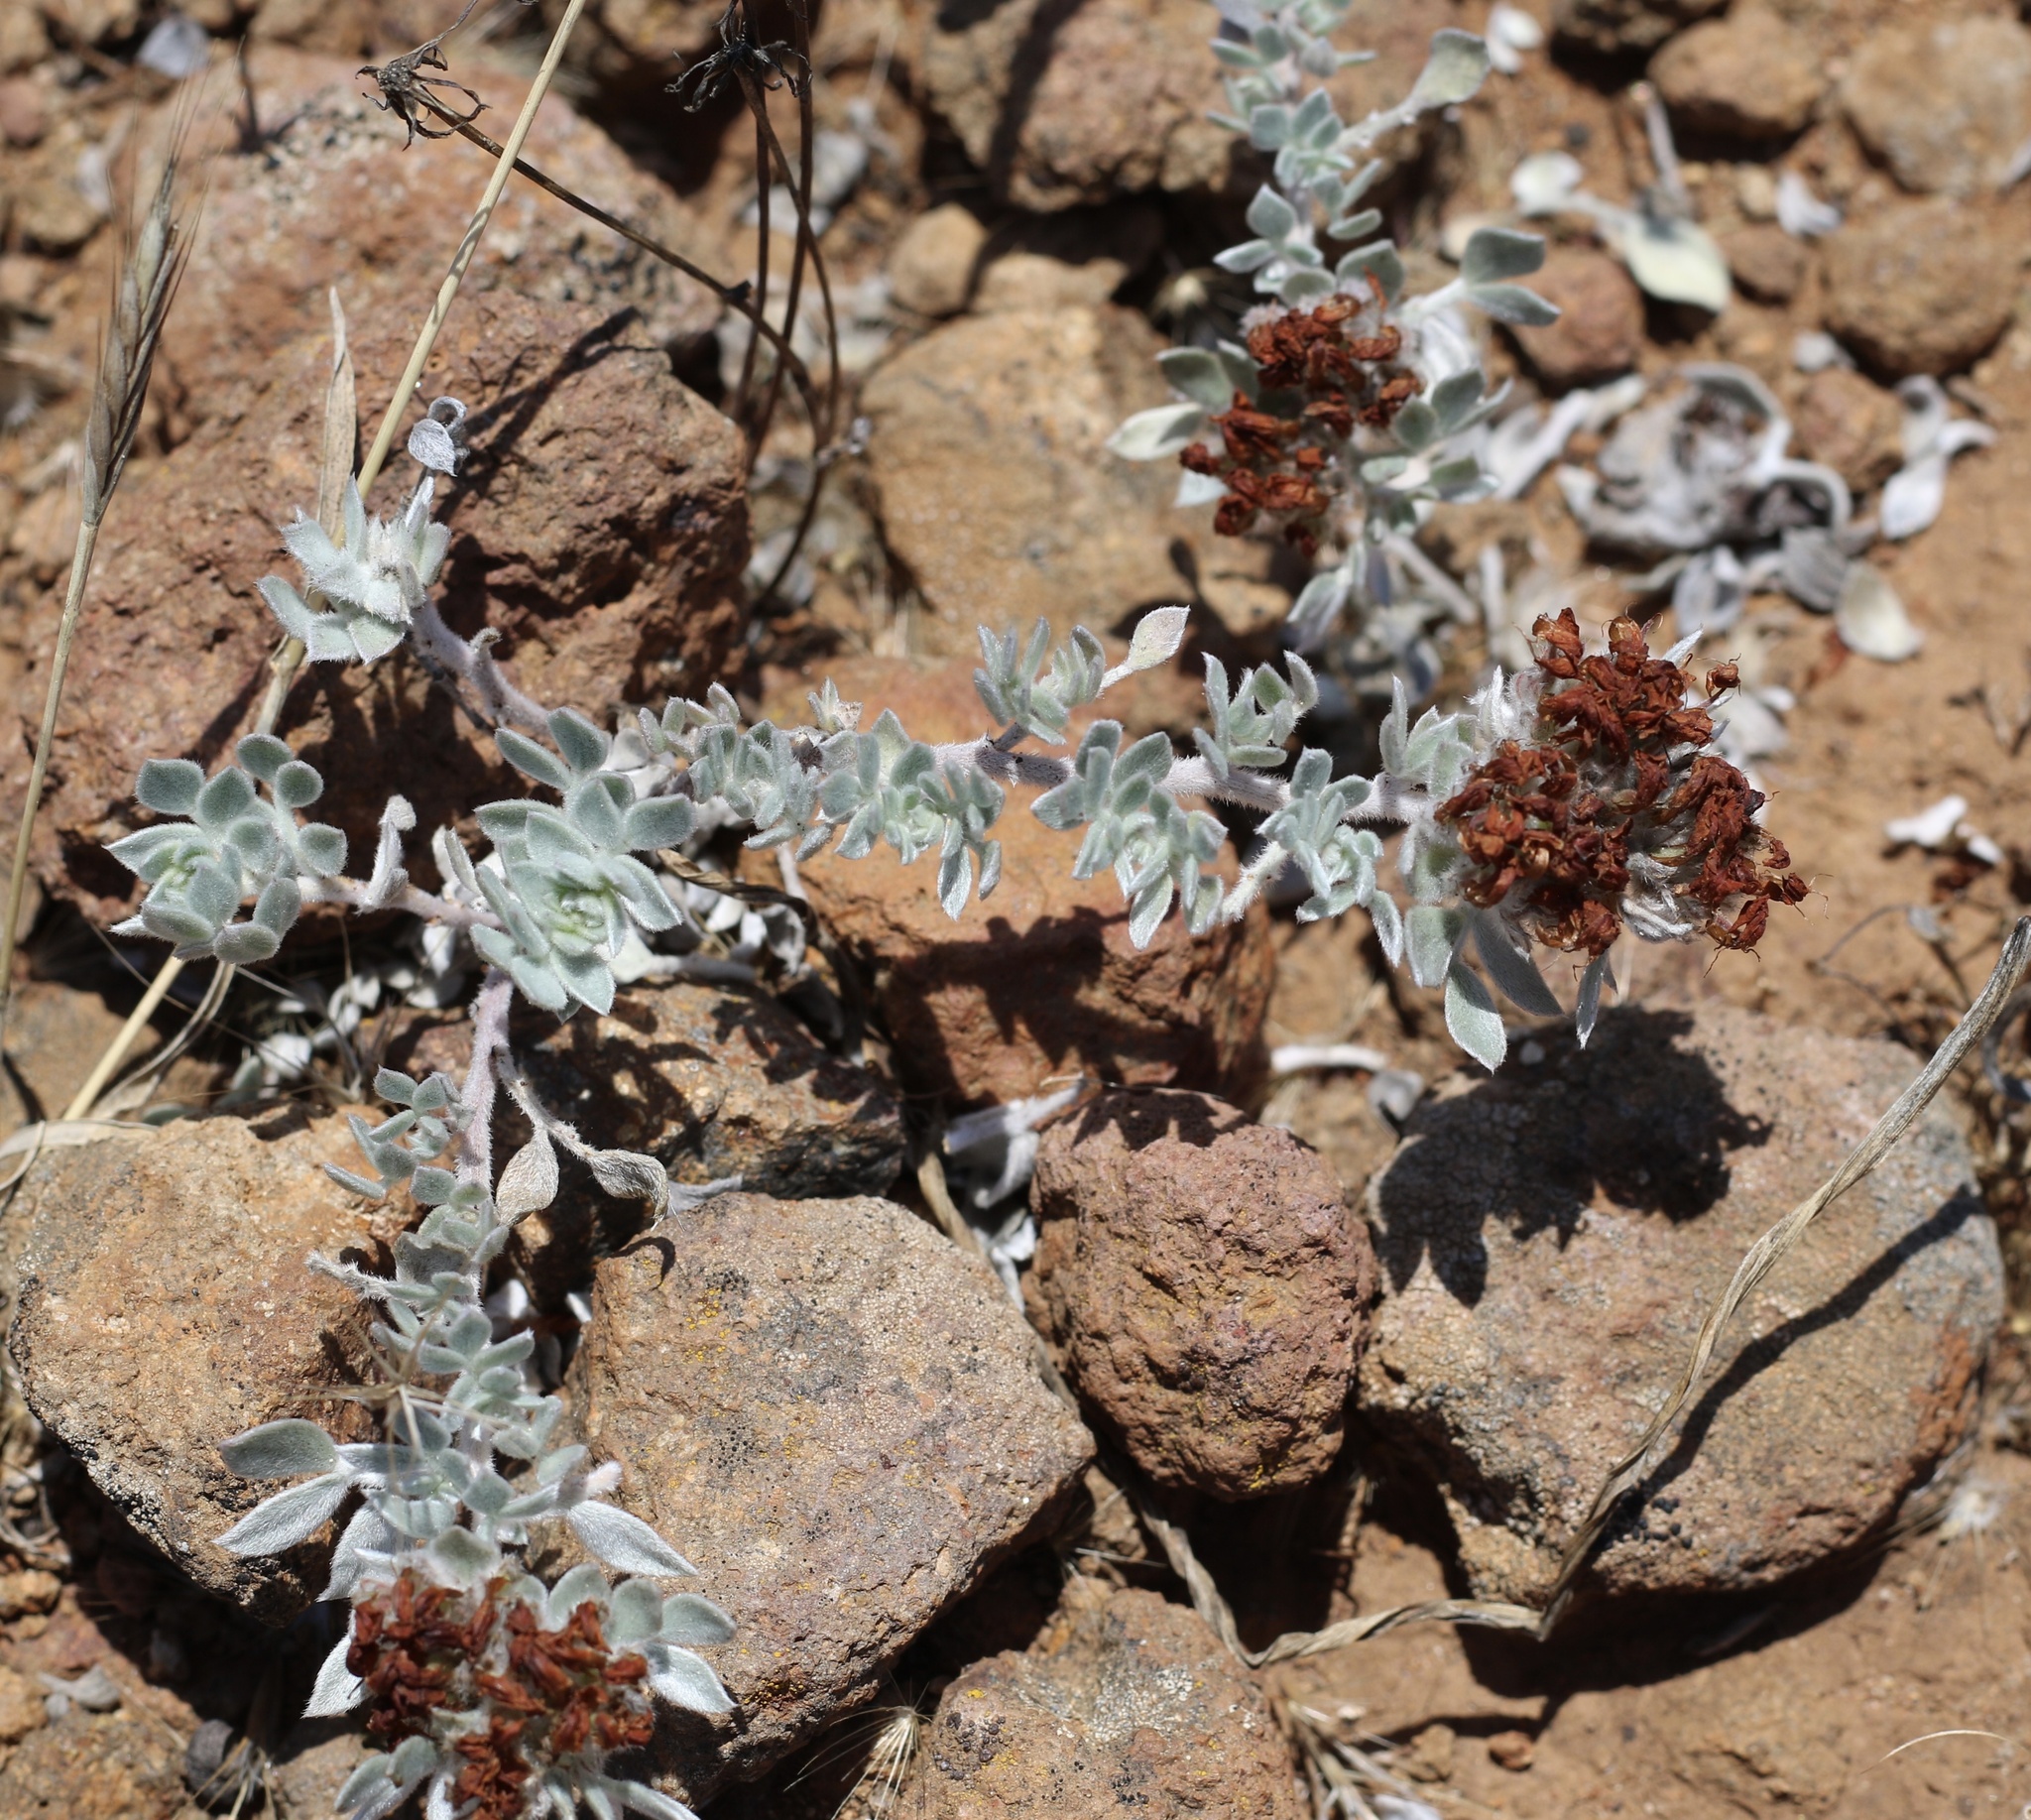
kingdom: Plantae
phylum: Tracheophyta
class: Magnoliopsida
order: Fabales
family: Fabaceae
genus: Acmispon
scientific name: Acmispon argophyllus
